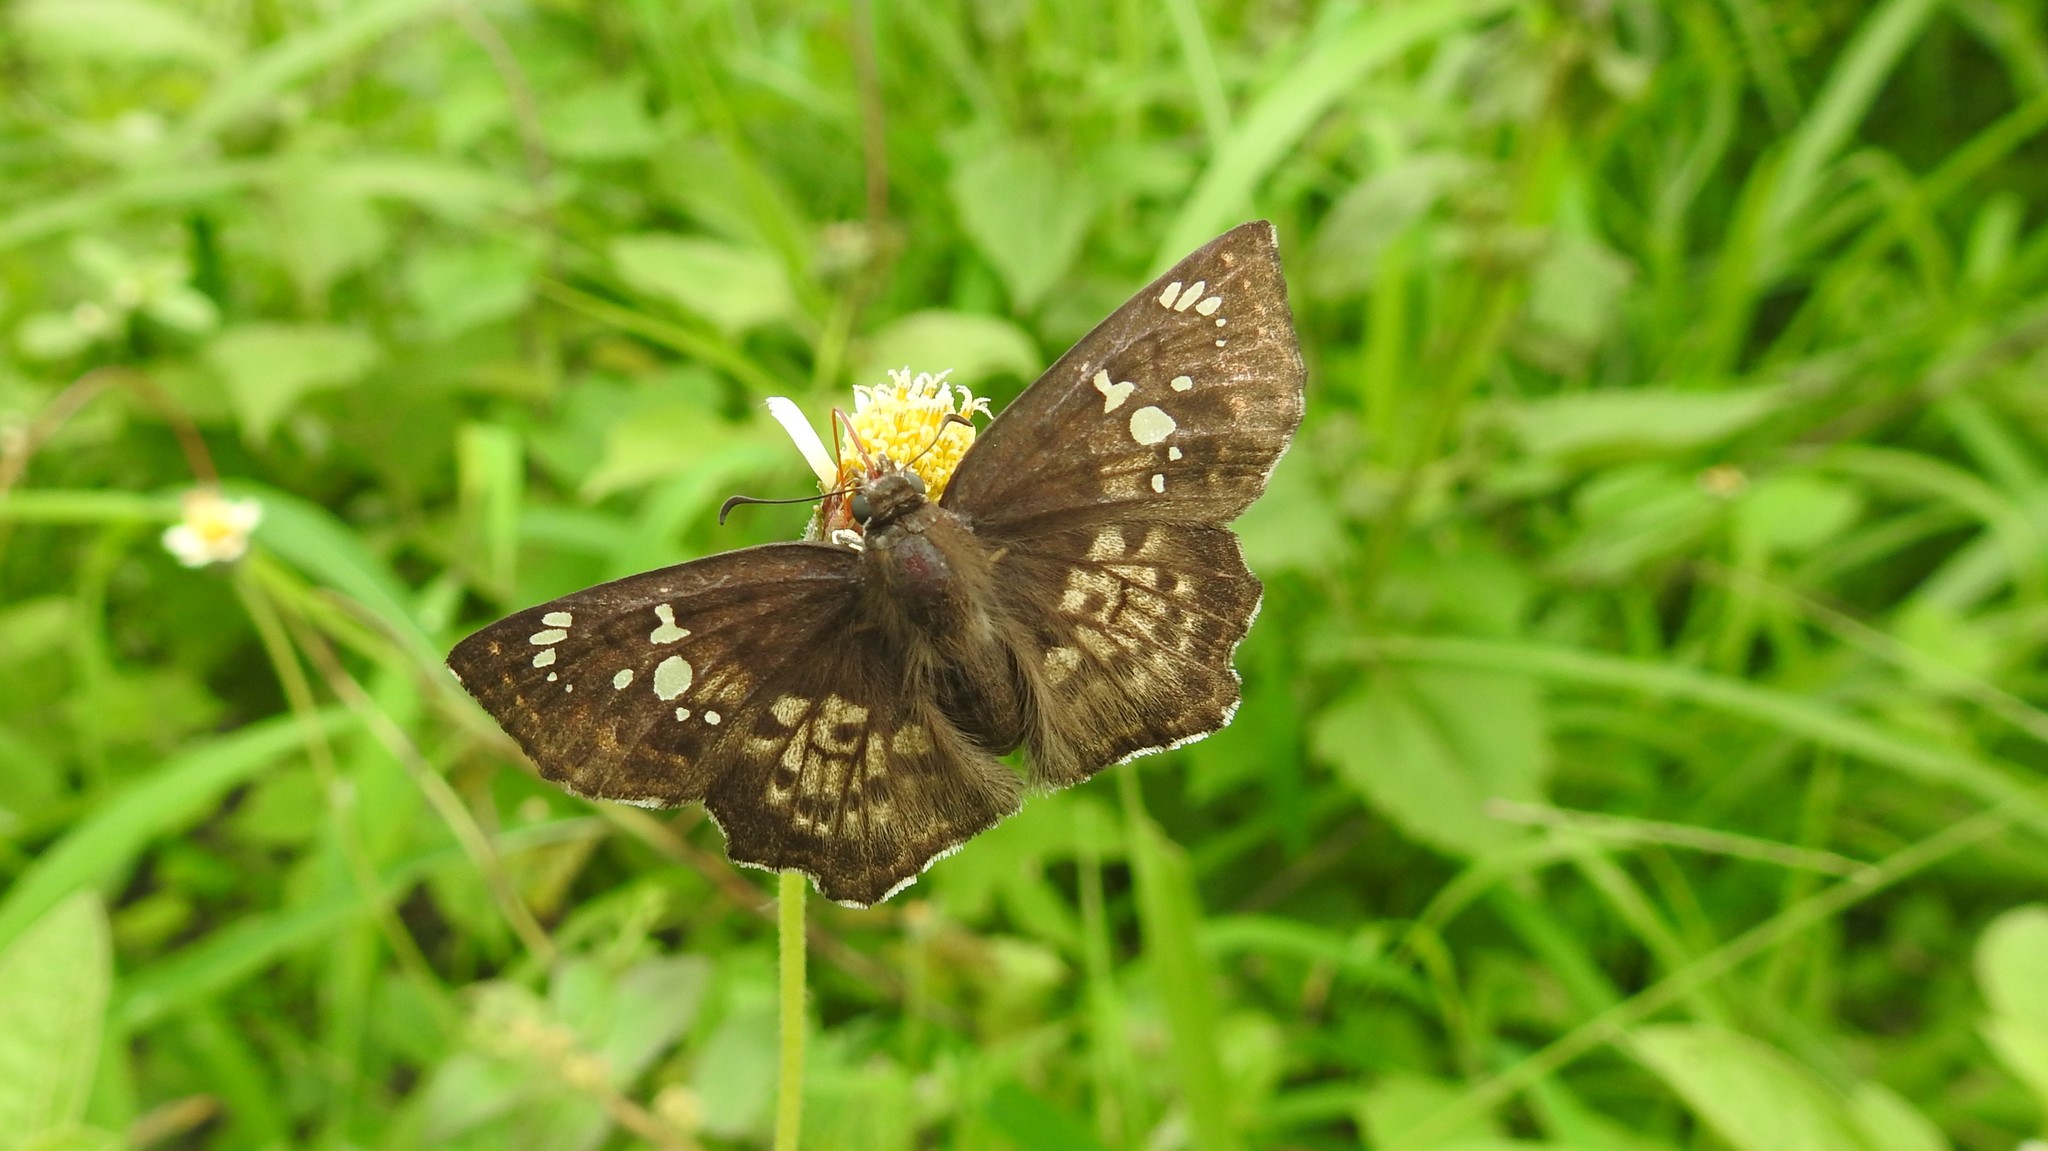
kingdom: Animalia
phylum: Arthropoda
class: Insecta
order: Lepidoptera
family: Hesperiidae
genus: Caprona
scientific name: Caprona ransonnettii
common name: Golden angle
